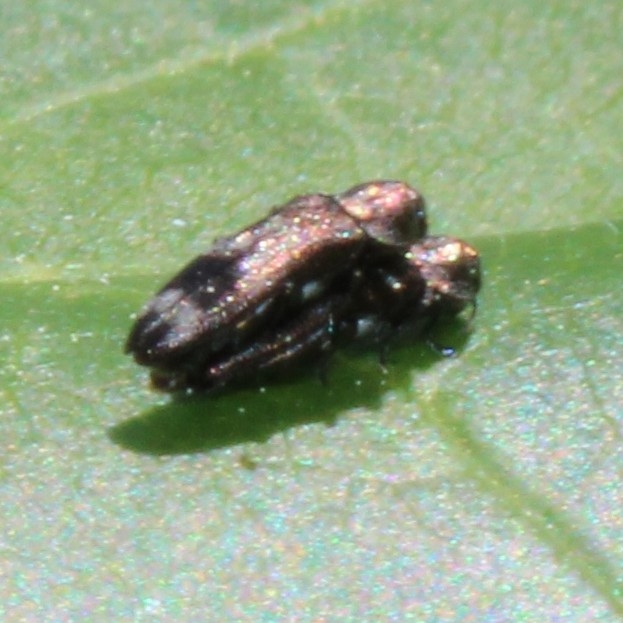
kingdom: Animalia
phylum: Arthropoda
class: Insecta
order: Coleoptera
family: Buprestidae
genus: Agrilus
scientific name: Agrilus subcinctus
